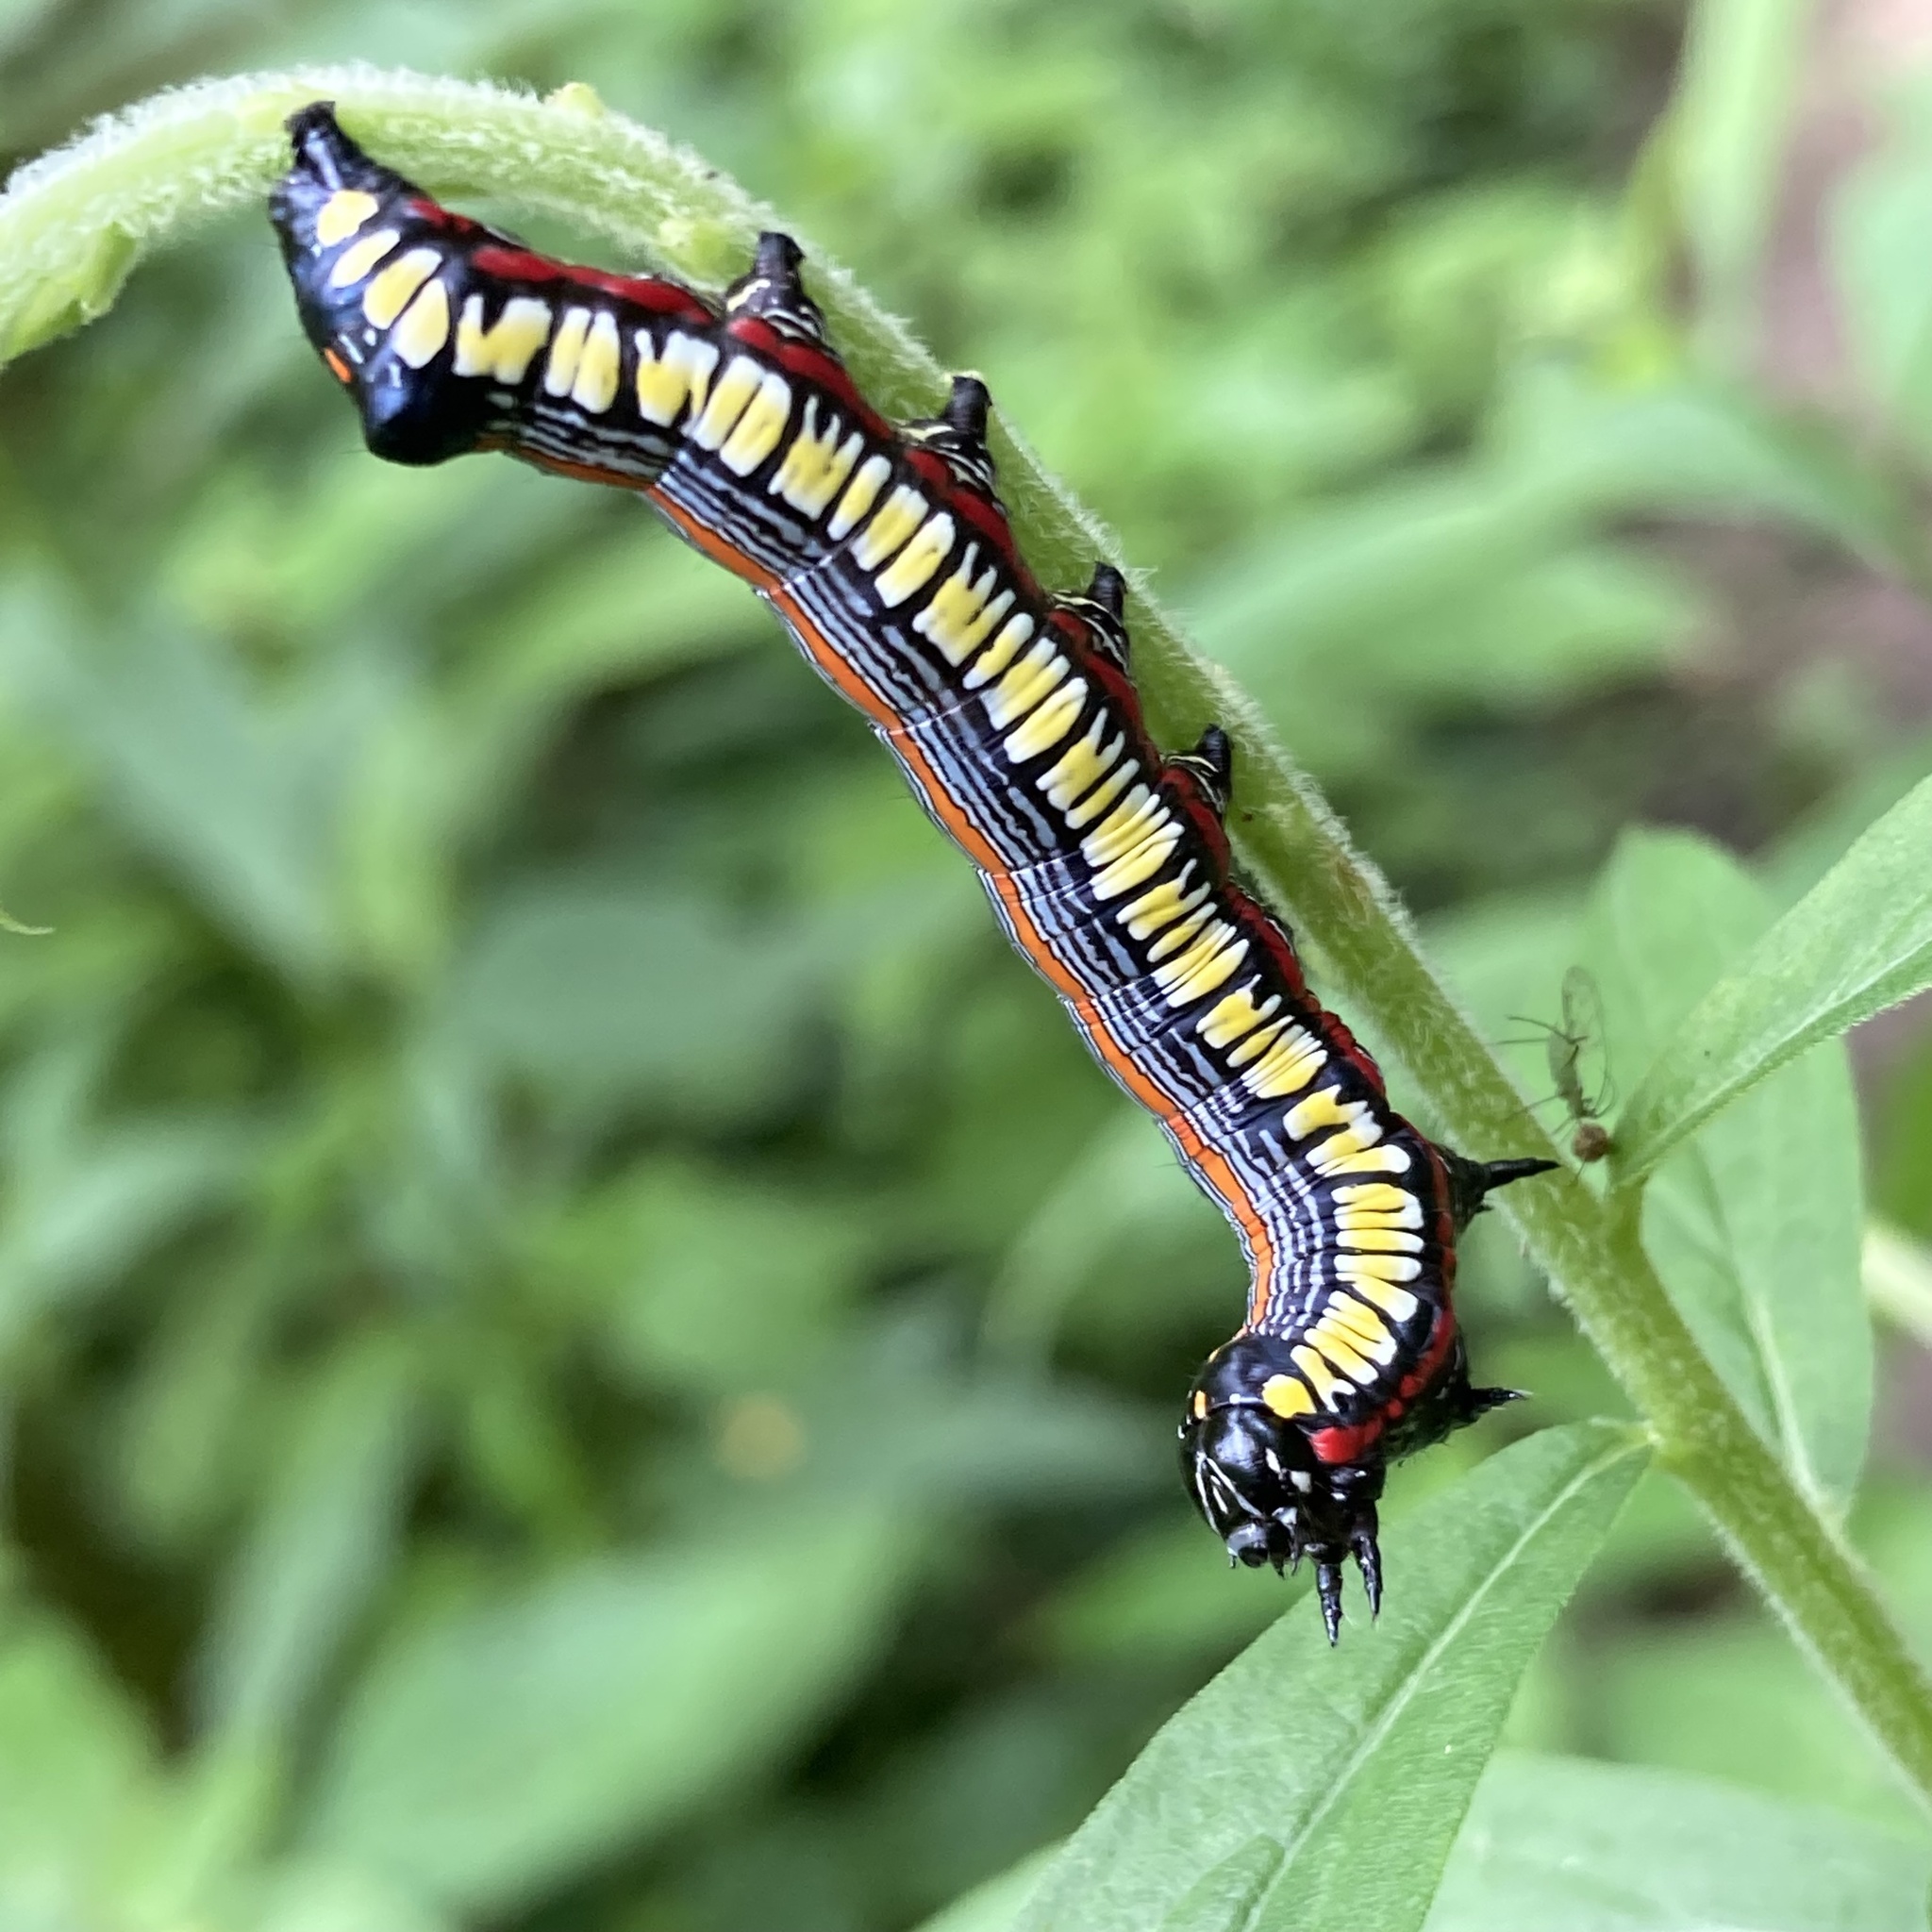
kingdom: Animalia
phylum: Arthropoda
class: Insecta
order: Lepidoptera
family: Noctuidae
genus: Cucullia
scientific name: Cucullia convexipennis
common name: Brown-hooded owlet
